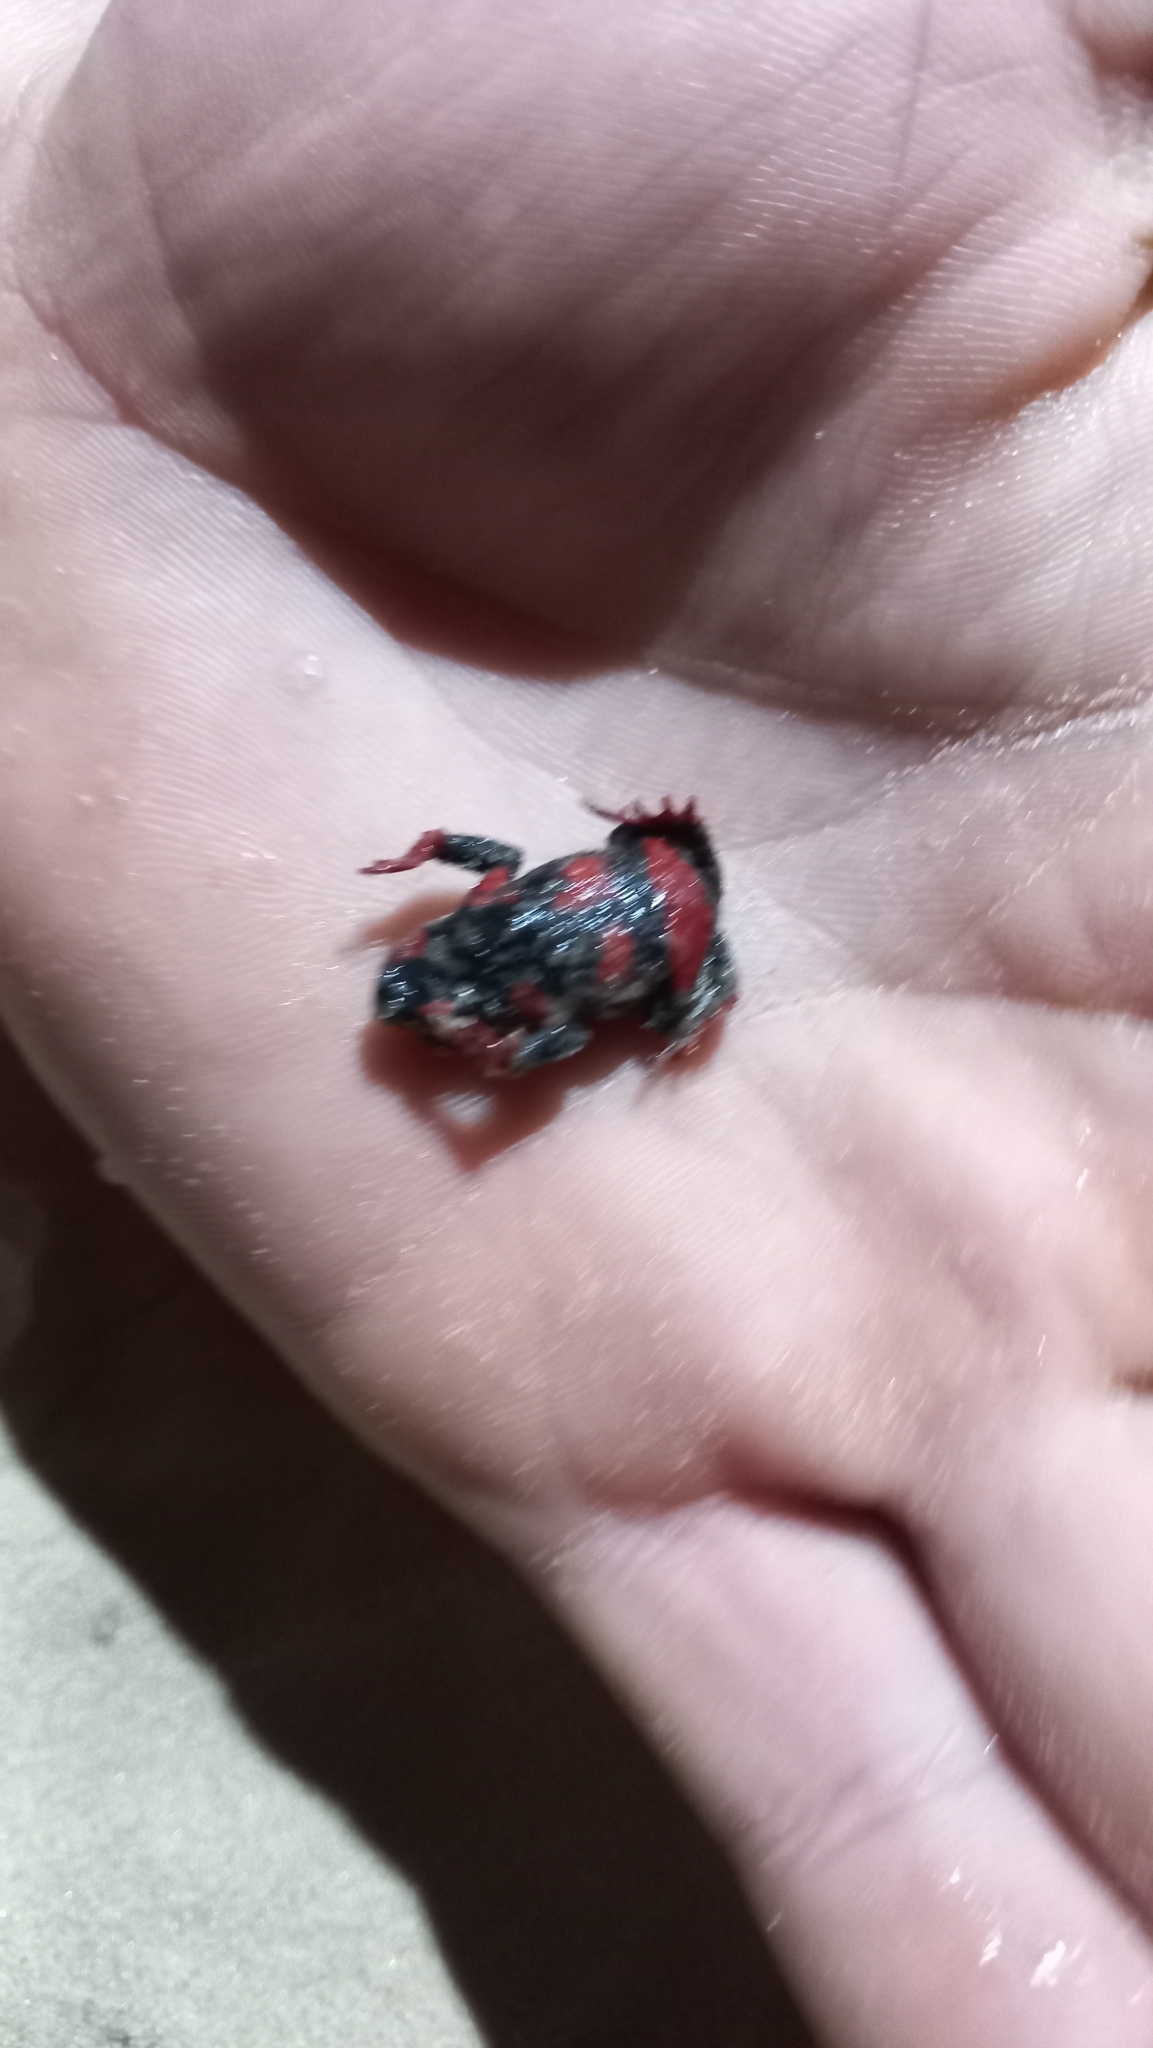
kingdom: Animalia
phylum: Chordata
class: Amphibia
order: Anura
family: Bufonidae
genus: Melanophryniscus
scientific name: Melanophryniscus dorsalis
